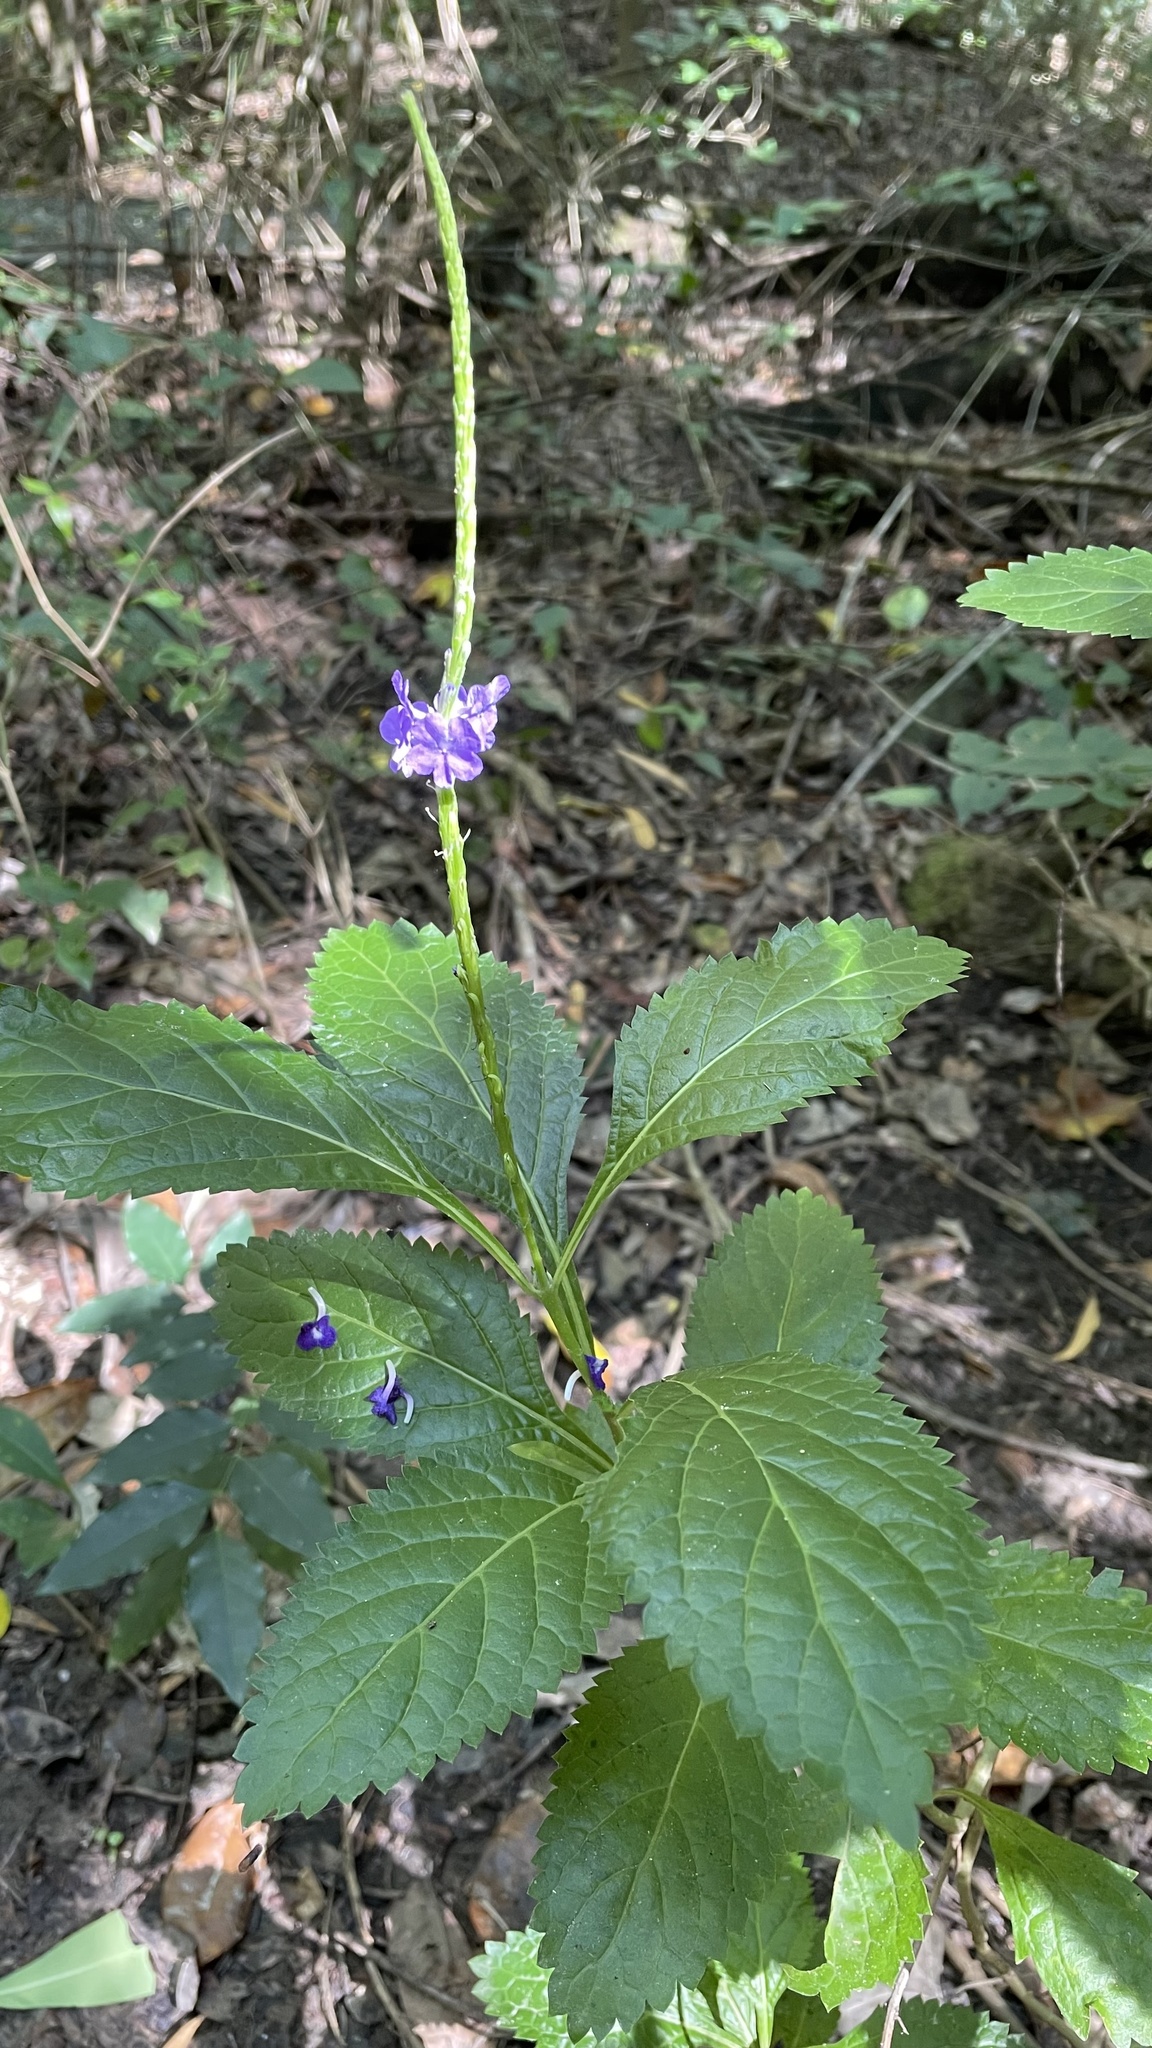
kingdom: Plantae
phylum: Tracheophyta
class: Magnoliopsida
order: Lamiales
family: Verbenaceae
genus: Stachytarpheta
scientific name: Stachytarpheta cayennensis
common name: Cayenne porterweed
